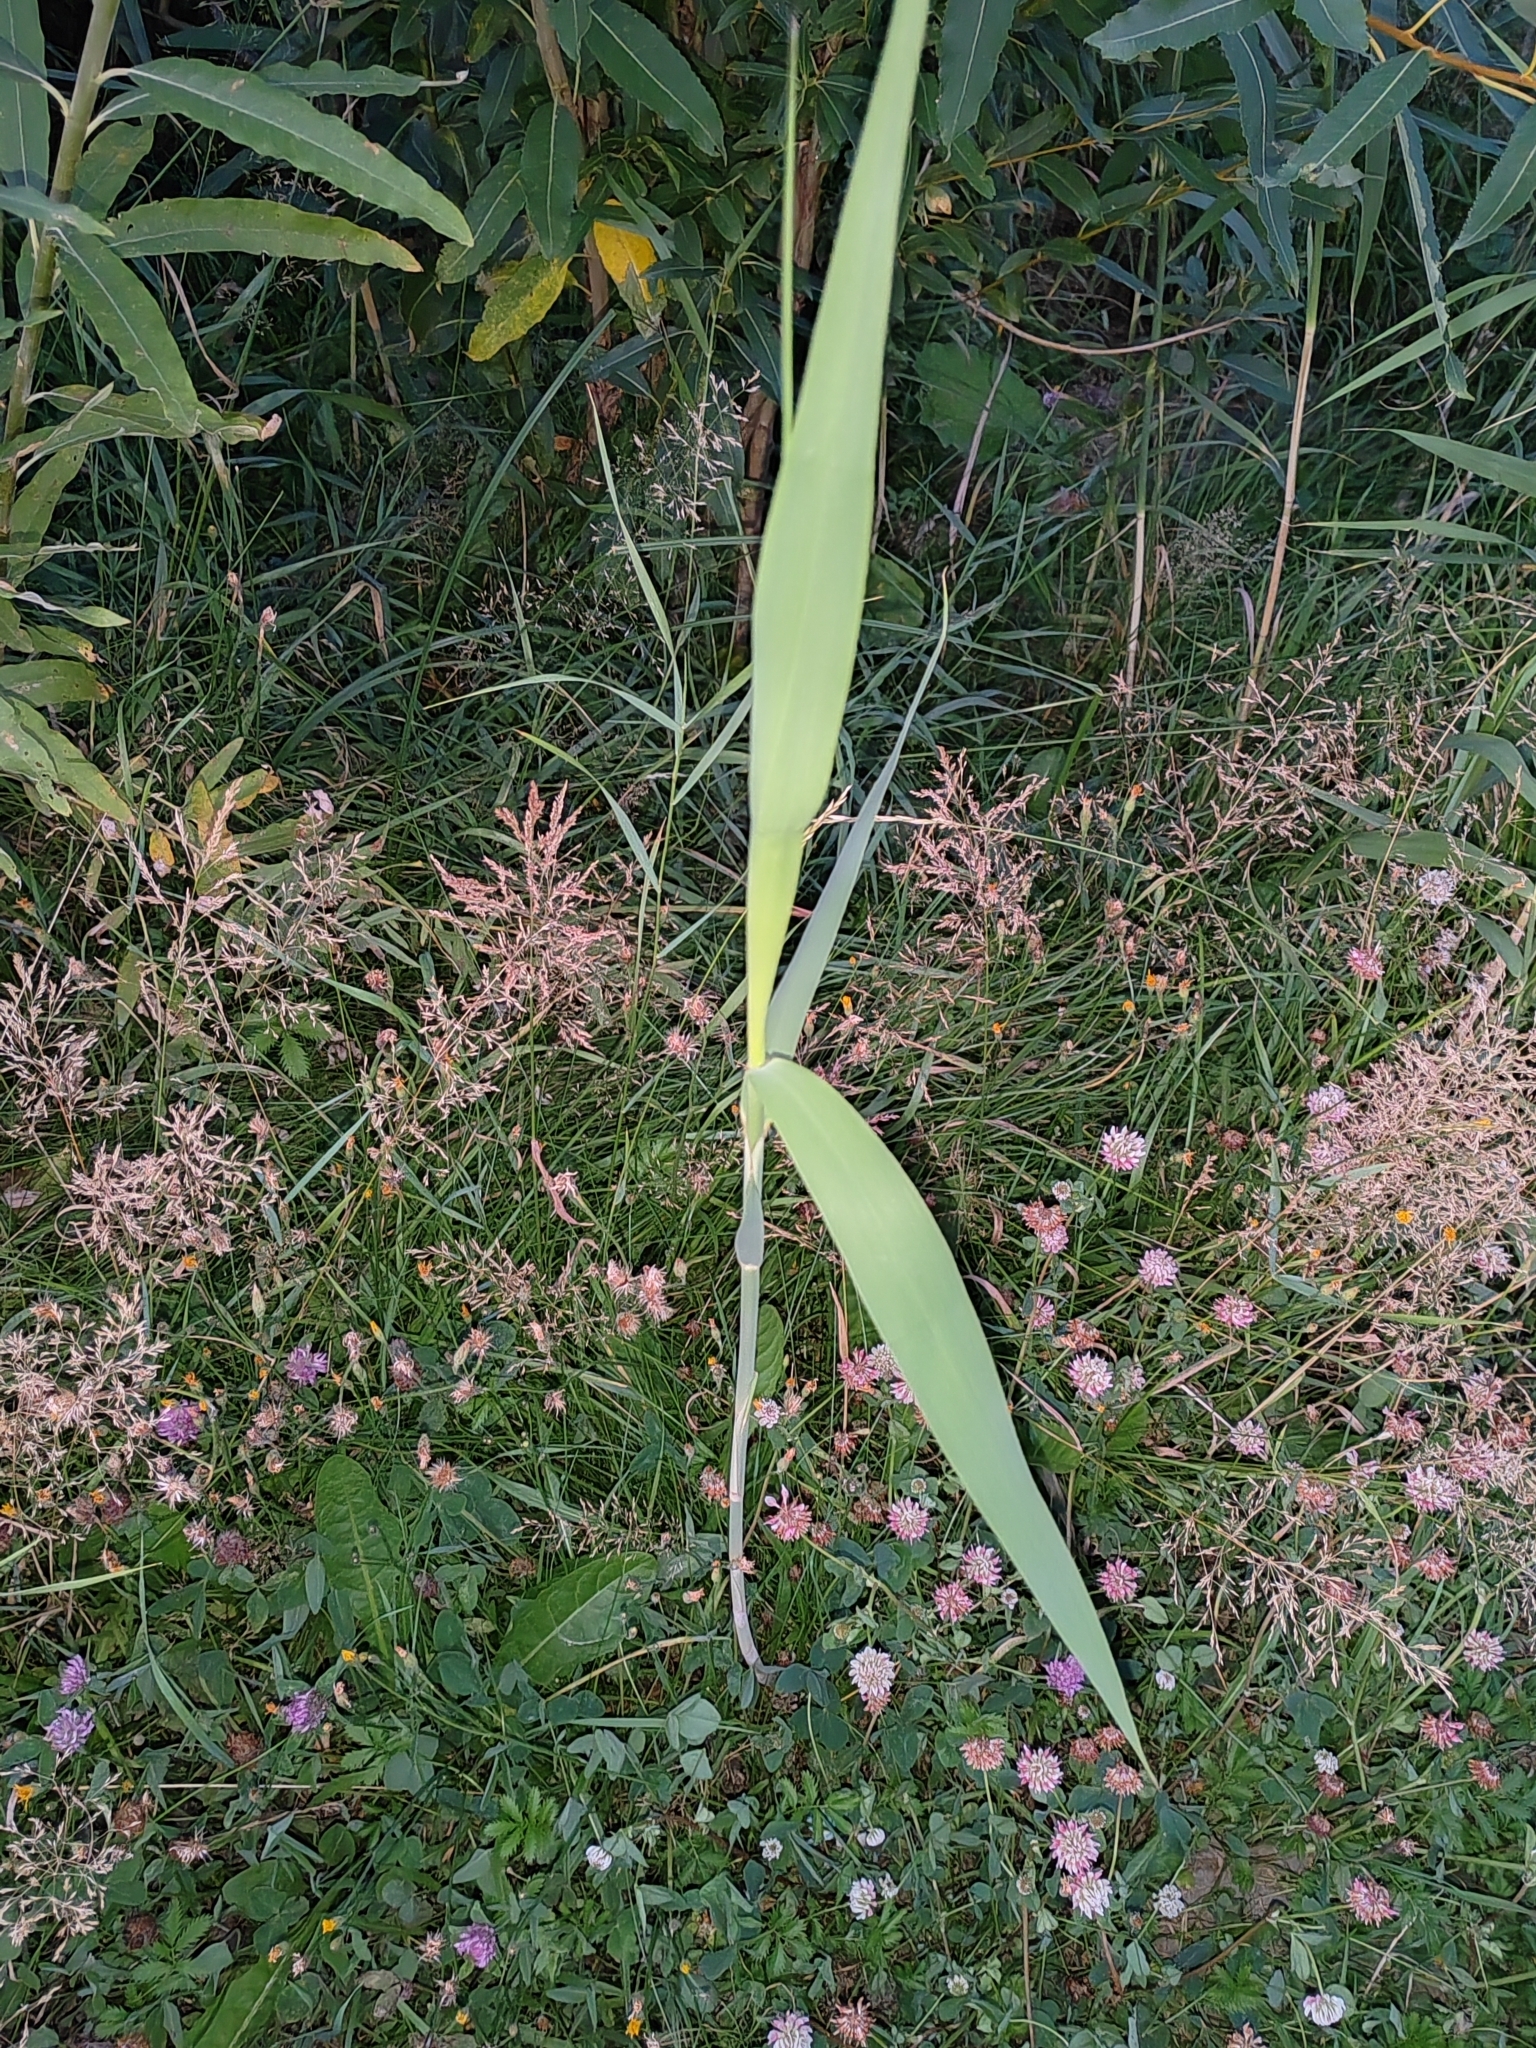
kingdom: Plantae
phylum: Tracheophyta
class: Liliopsida
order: Poales
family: Poaceae
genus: Phragmites
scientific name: Phragmites australis
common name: Common reed
